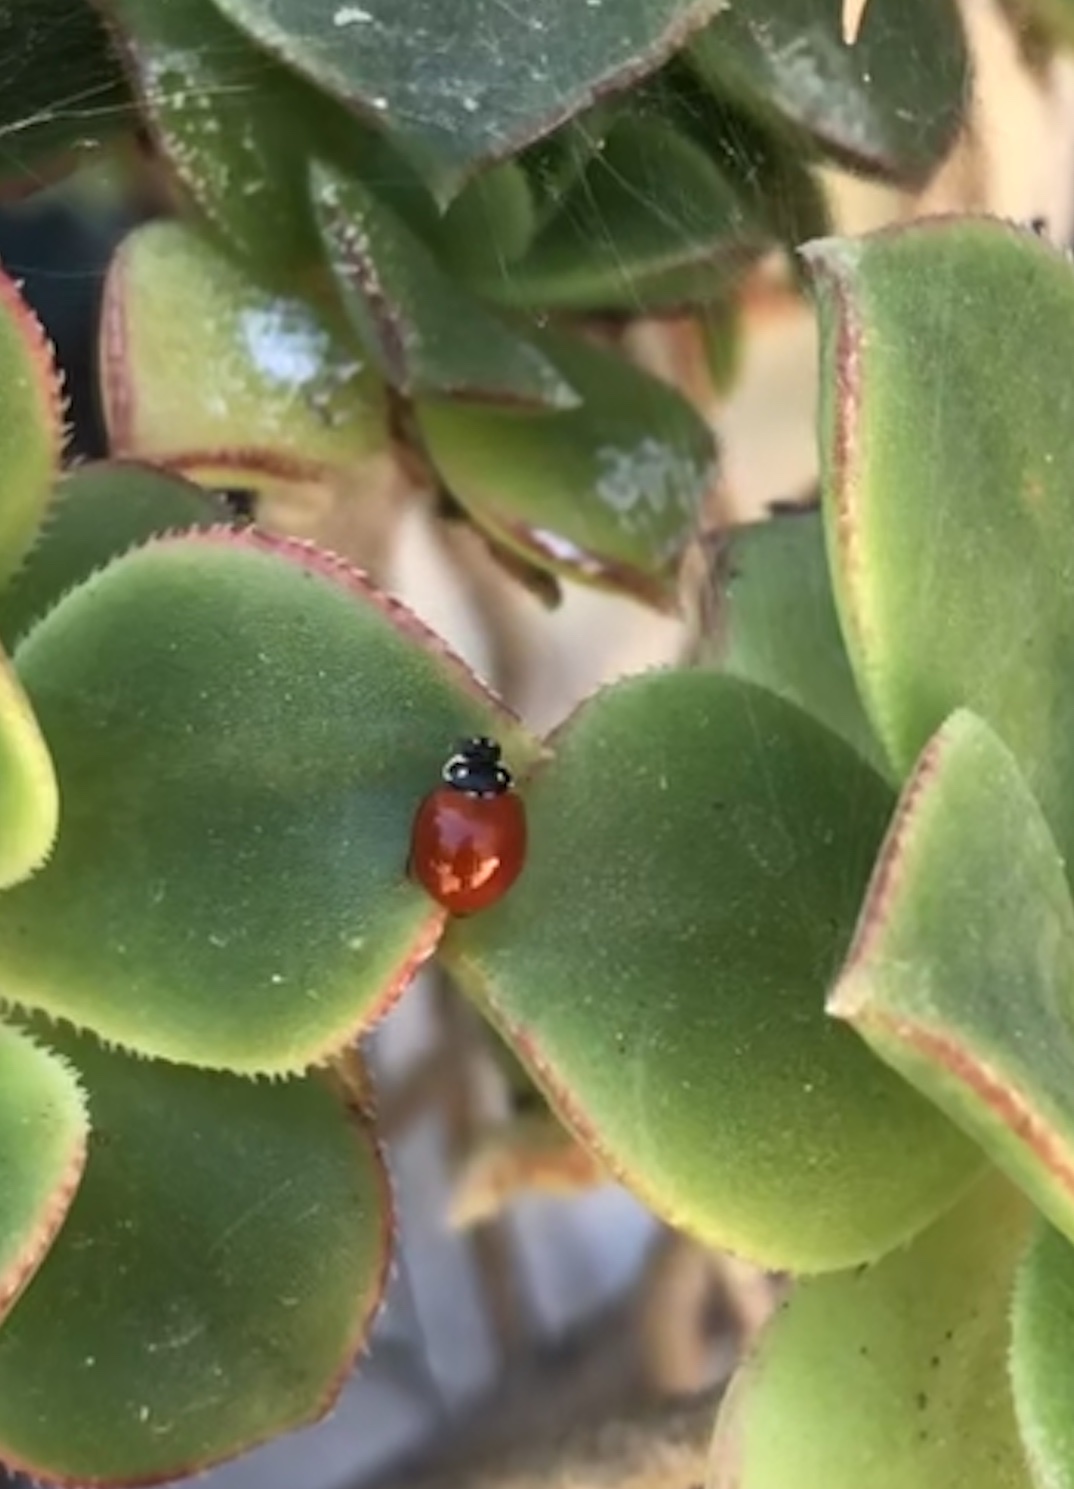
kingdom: Animalia
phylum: Arthropoda
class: Insecta
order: Coleoptera
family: Coccinellidae
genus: Cycloneda
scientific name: Cycloneda sanguinea
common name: Ladybird beetle
